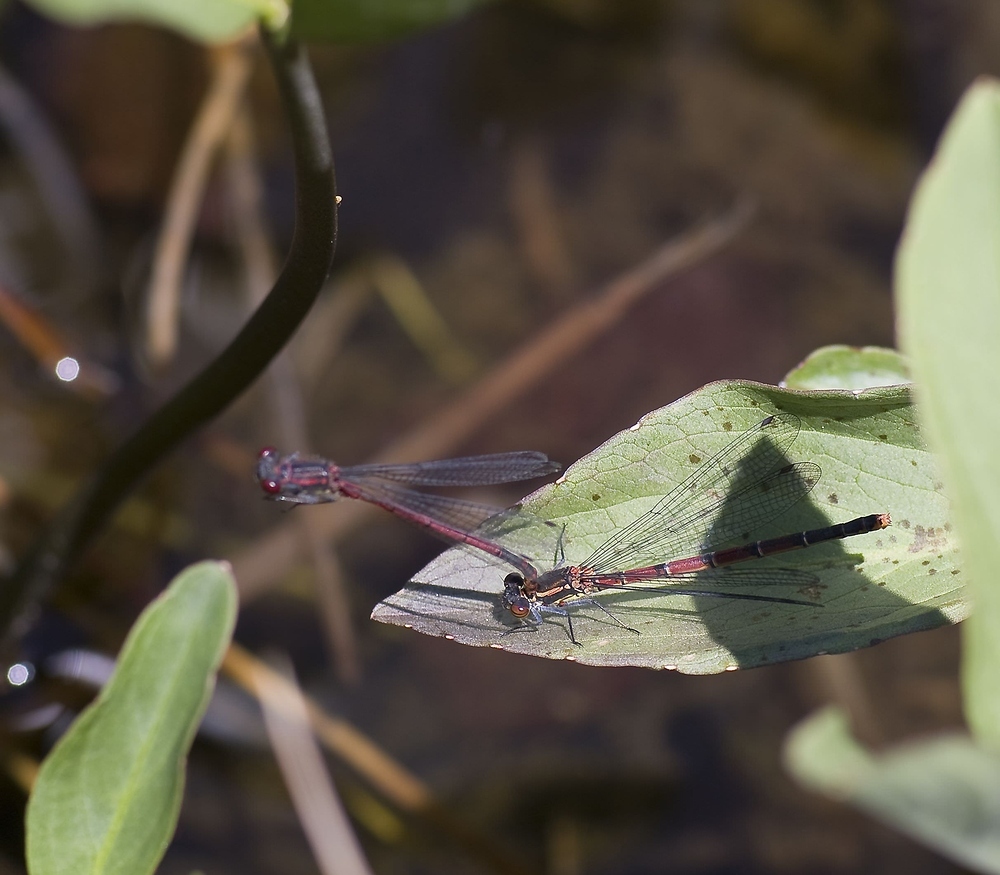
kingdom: Animalia
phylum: Arthropoda
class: Insecta
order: Odonata
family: Coenagrionidae
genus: Pyrrhosoma
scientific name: Pyrrhosoma nymphula
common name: Large red damsel
